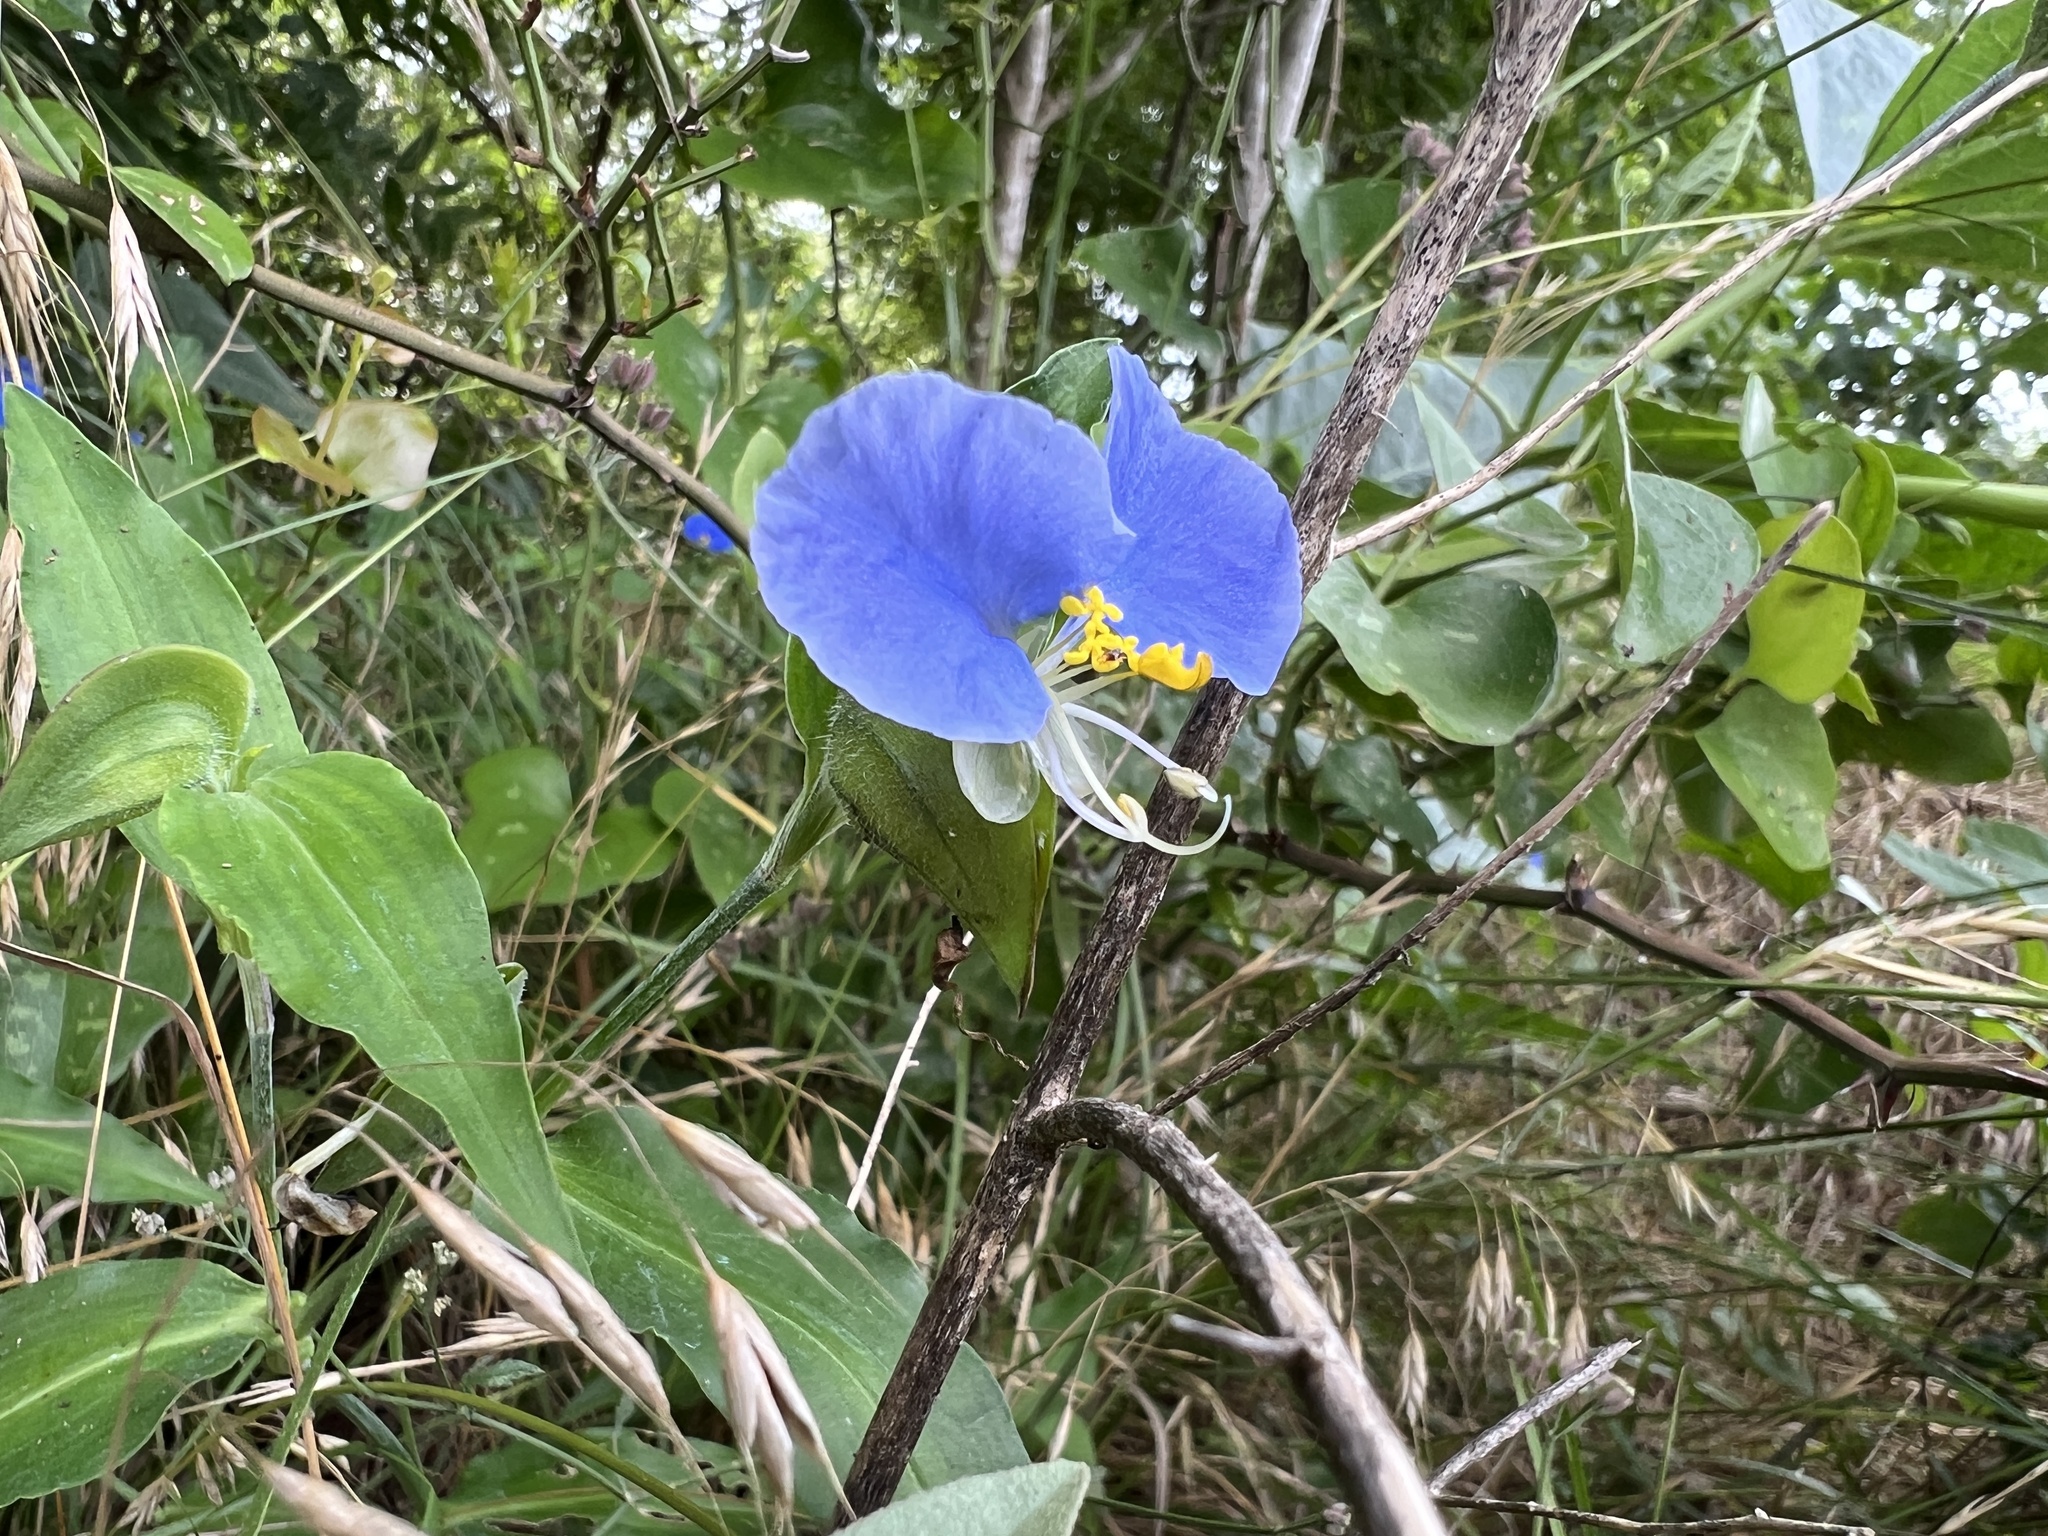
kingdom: Plantae
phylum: Tracheophyta
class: Liliopsida
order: Commelinales
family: Commelinaceae
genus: Commelina
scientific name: Commelina erecta
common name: Blousel blommetjie
